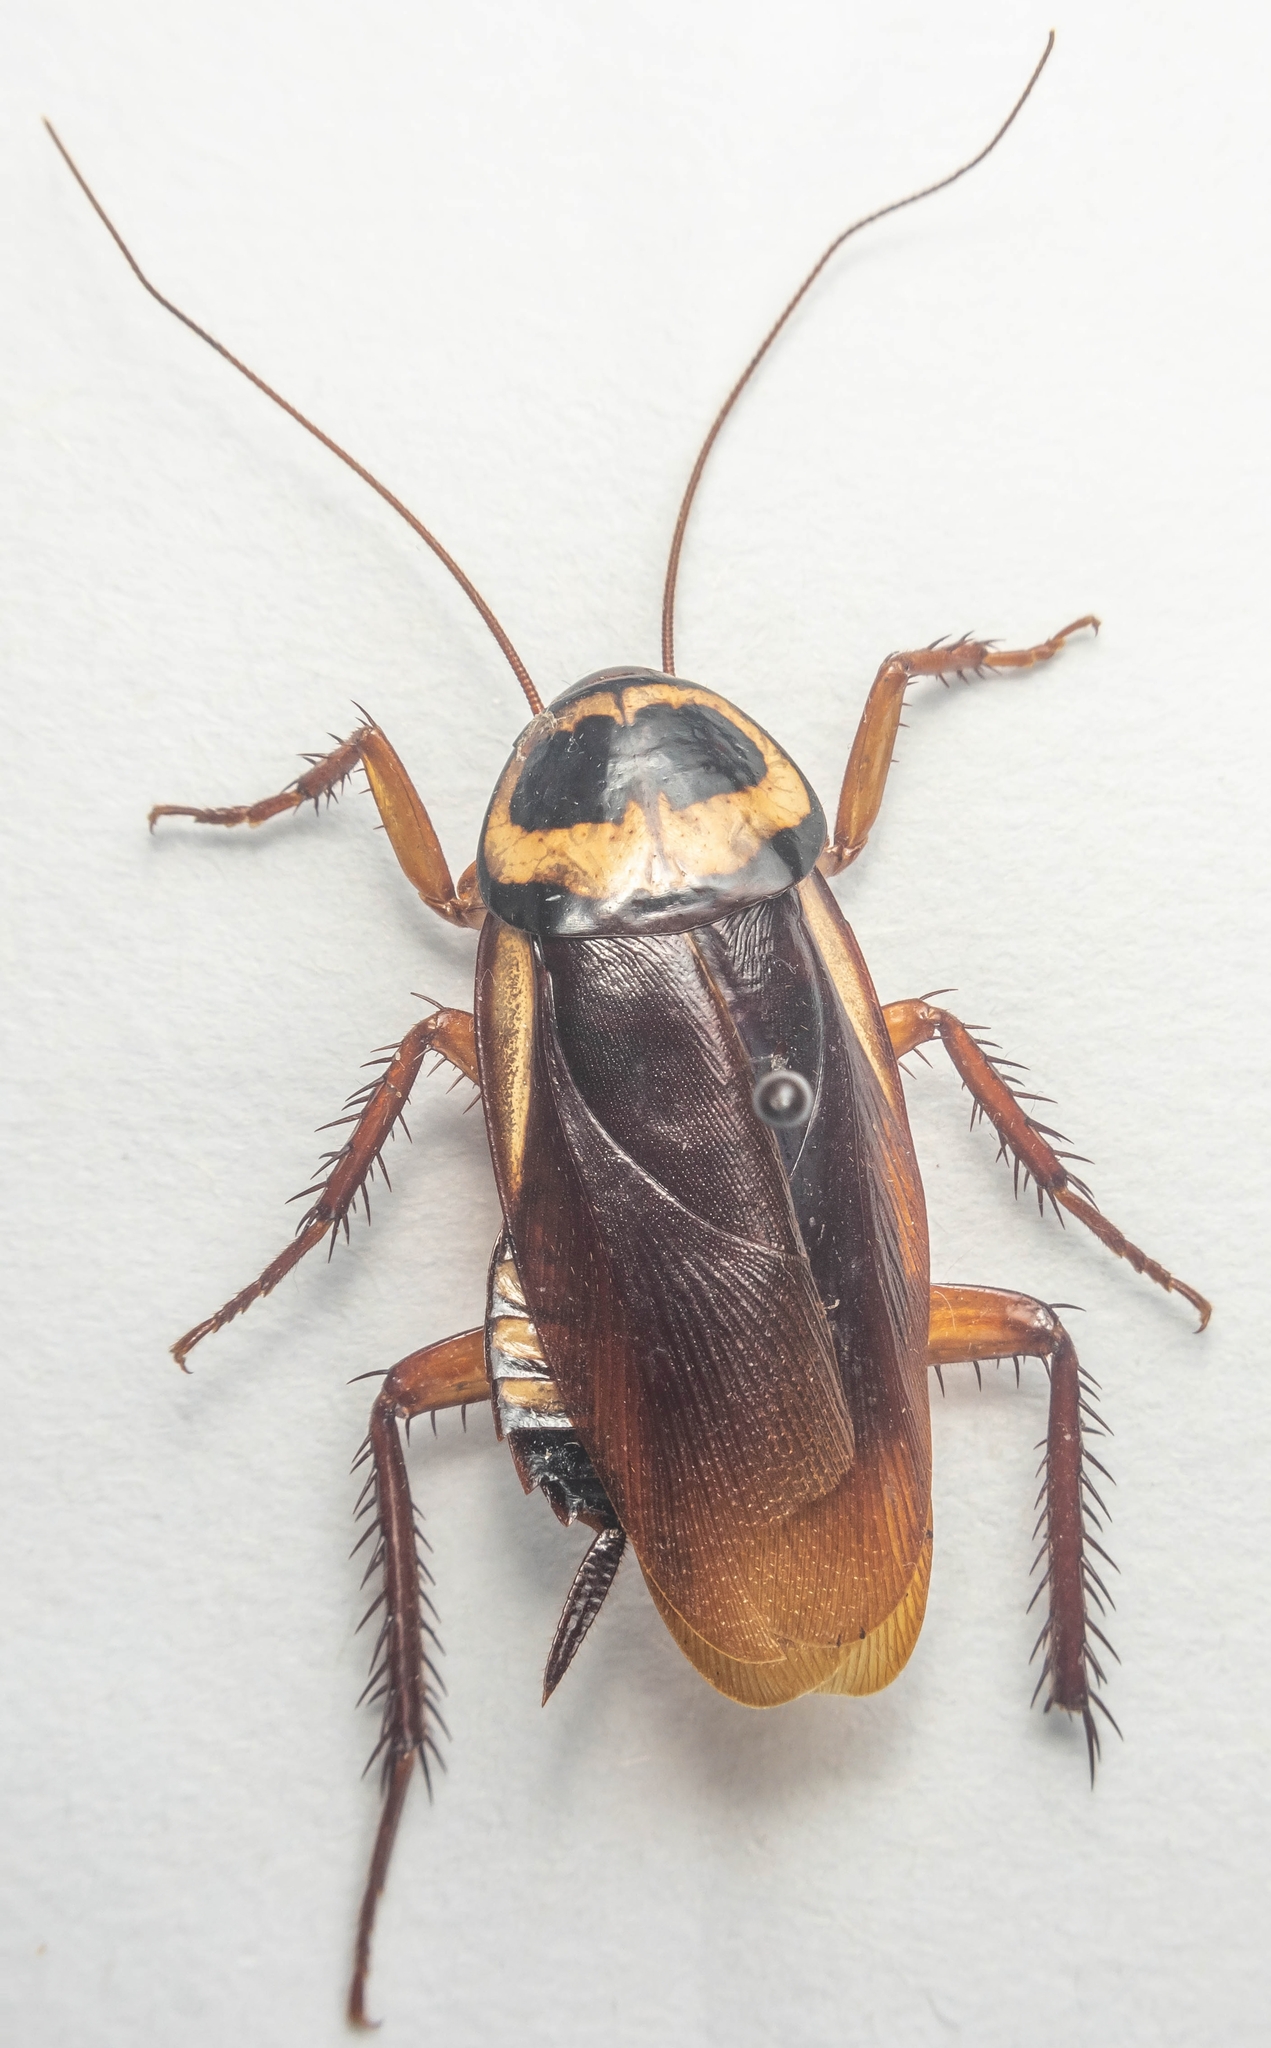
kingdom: Animalia
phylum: Arthropoda
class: Insecta
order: Blattodea
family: Blattidae
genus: Periplaneta
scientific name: Periplaneta australasiae
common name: Australian cockroach
